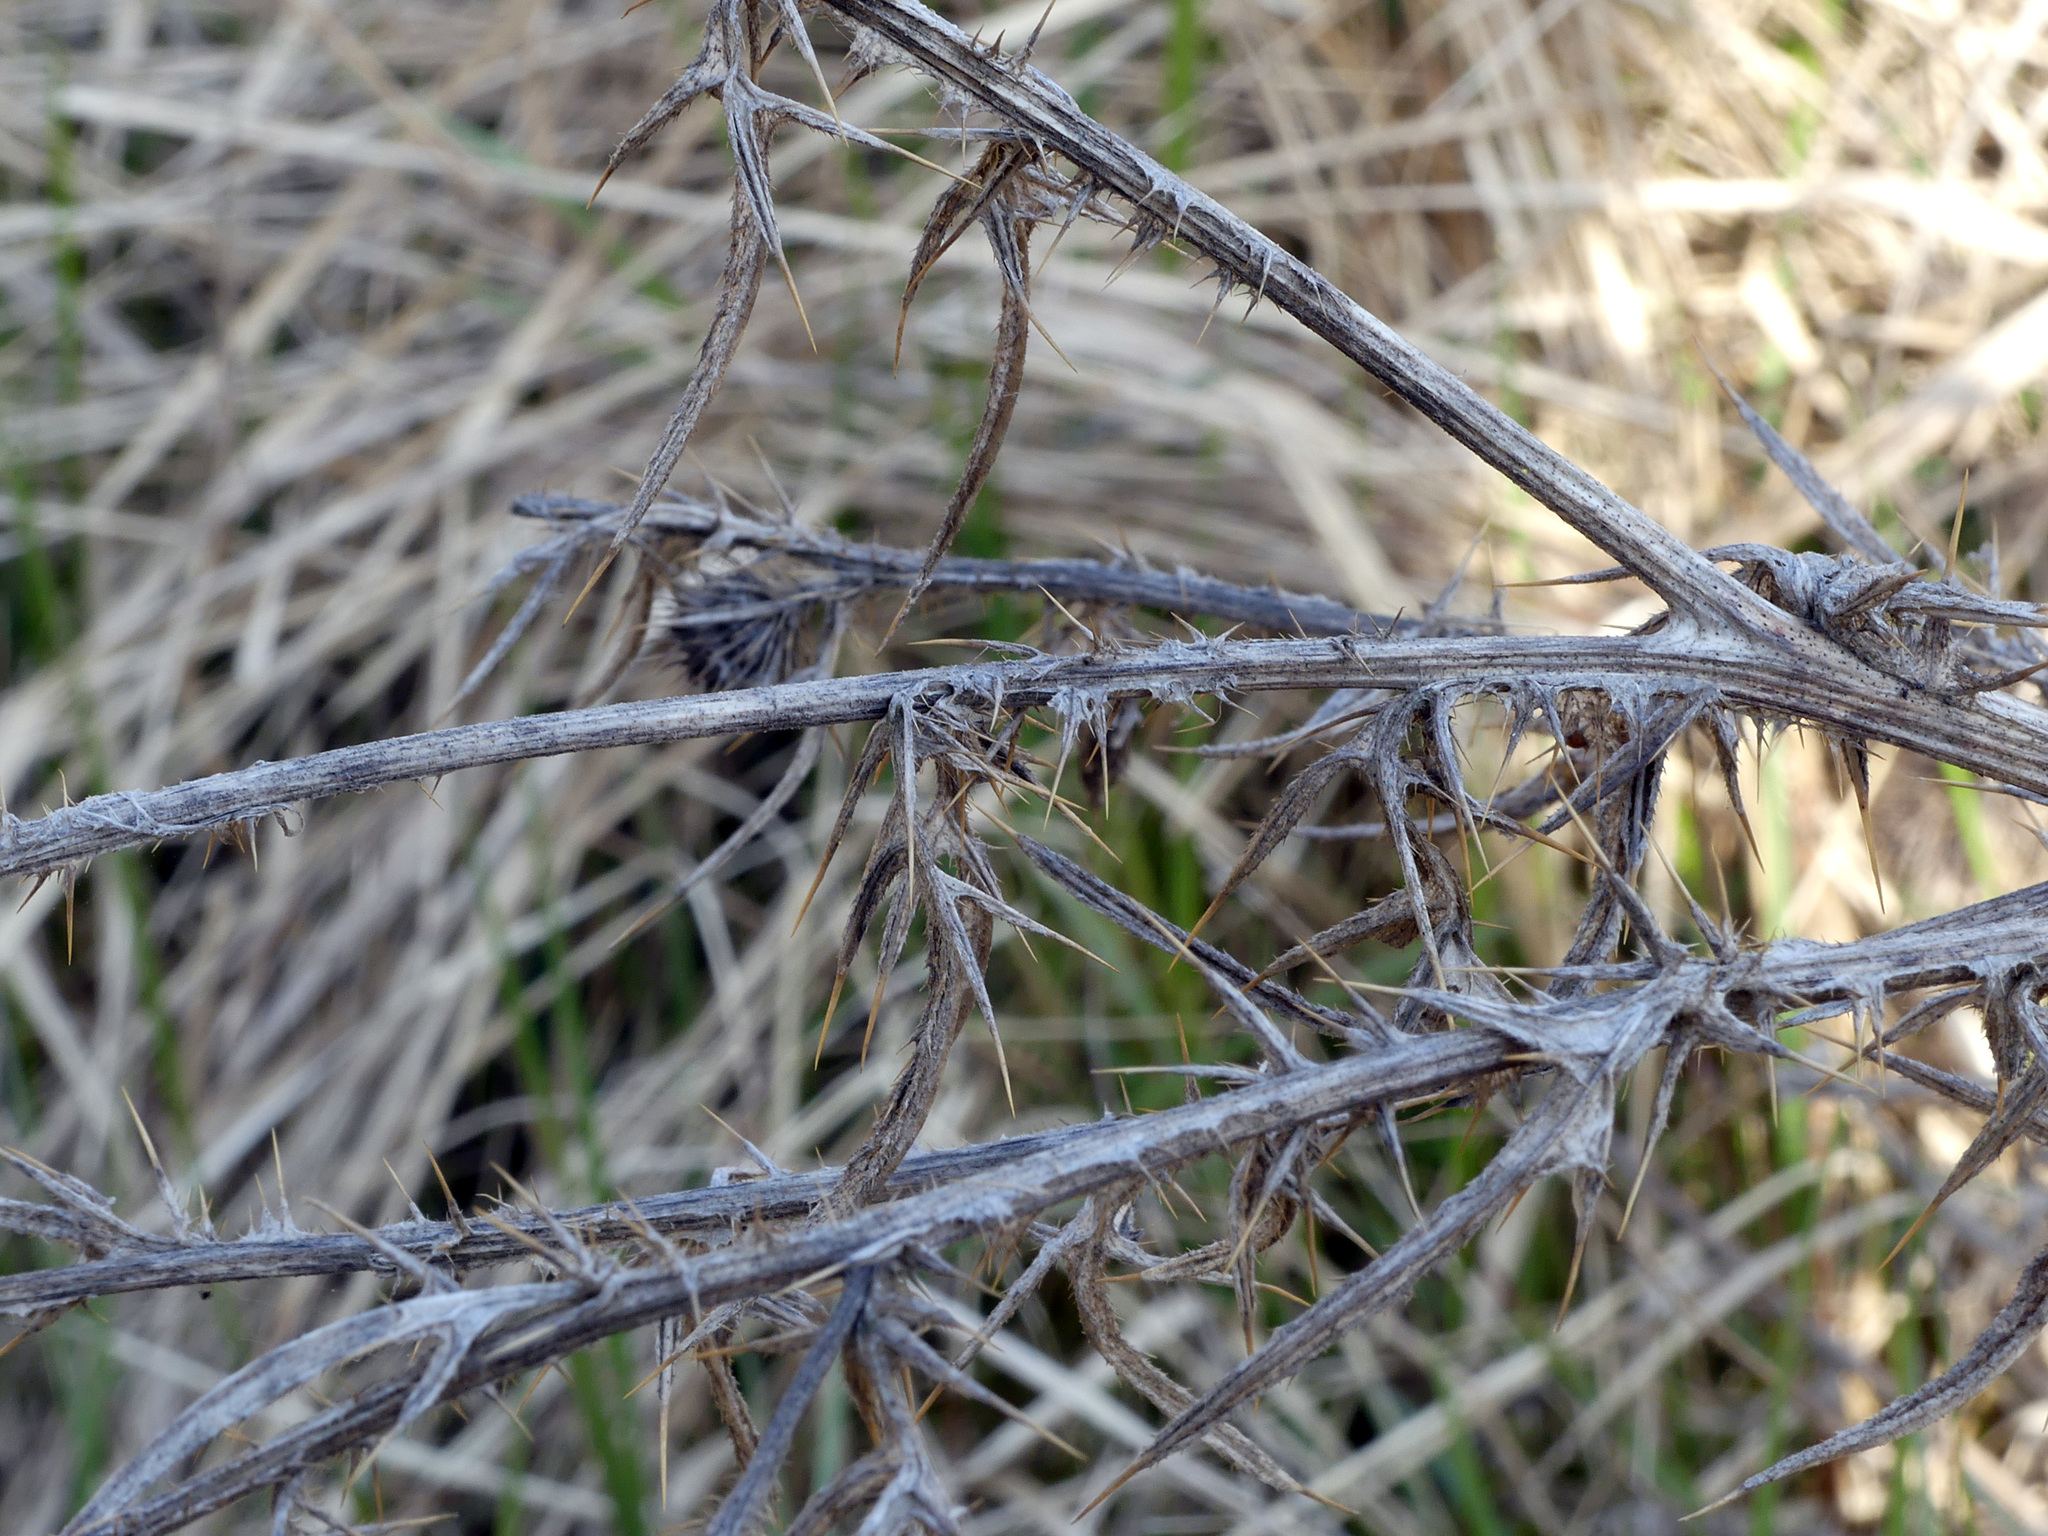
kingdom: Plantae
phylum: Tracheophyta
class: Magnoliopsida
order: Asterales
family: Asteraceae
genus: Cirsium
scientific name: Cirsium vulgare
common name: Bull thistle
